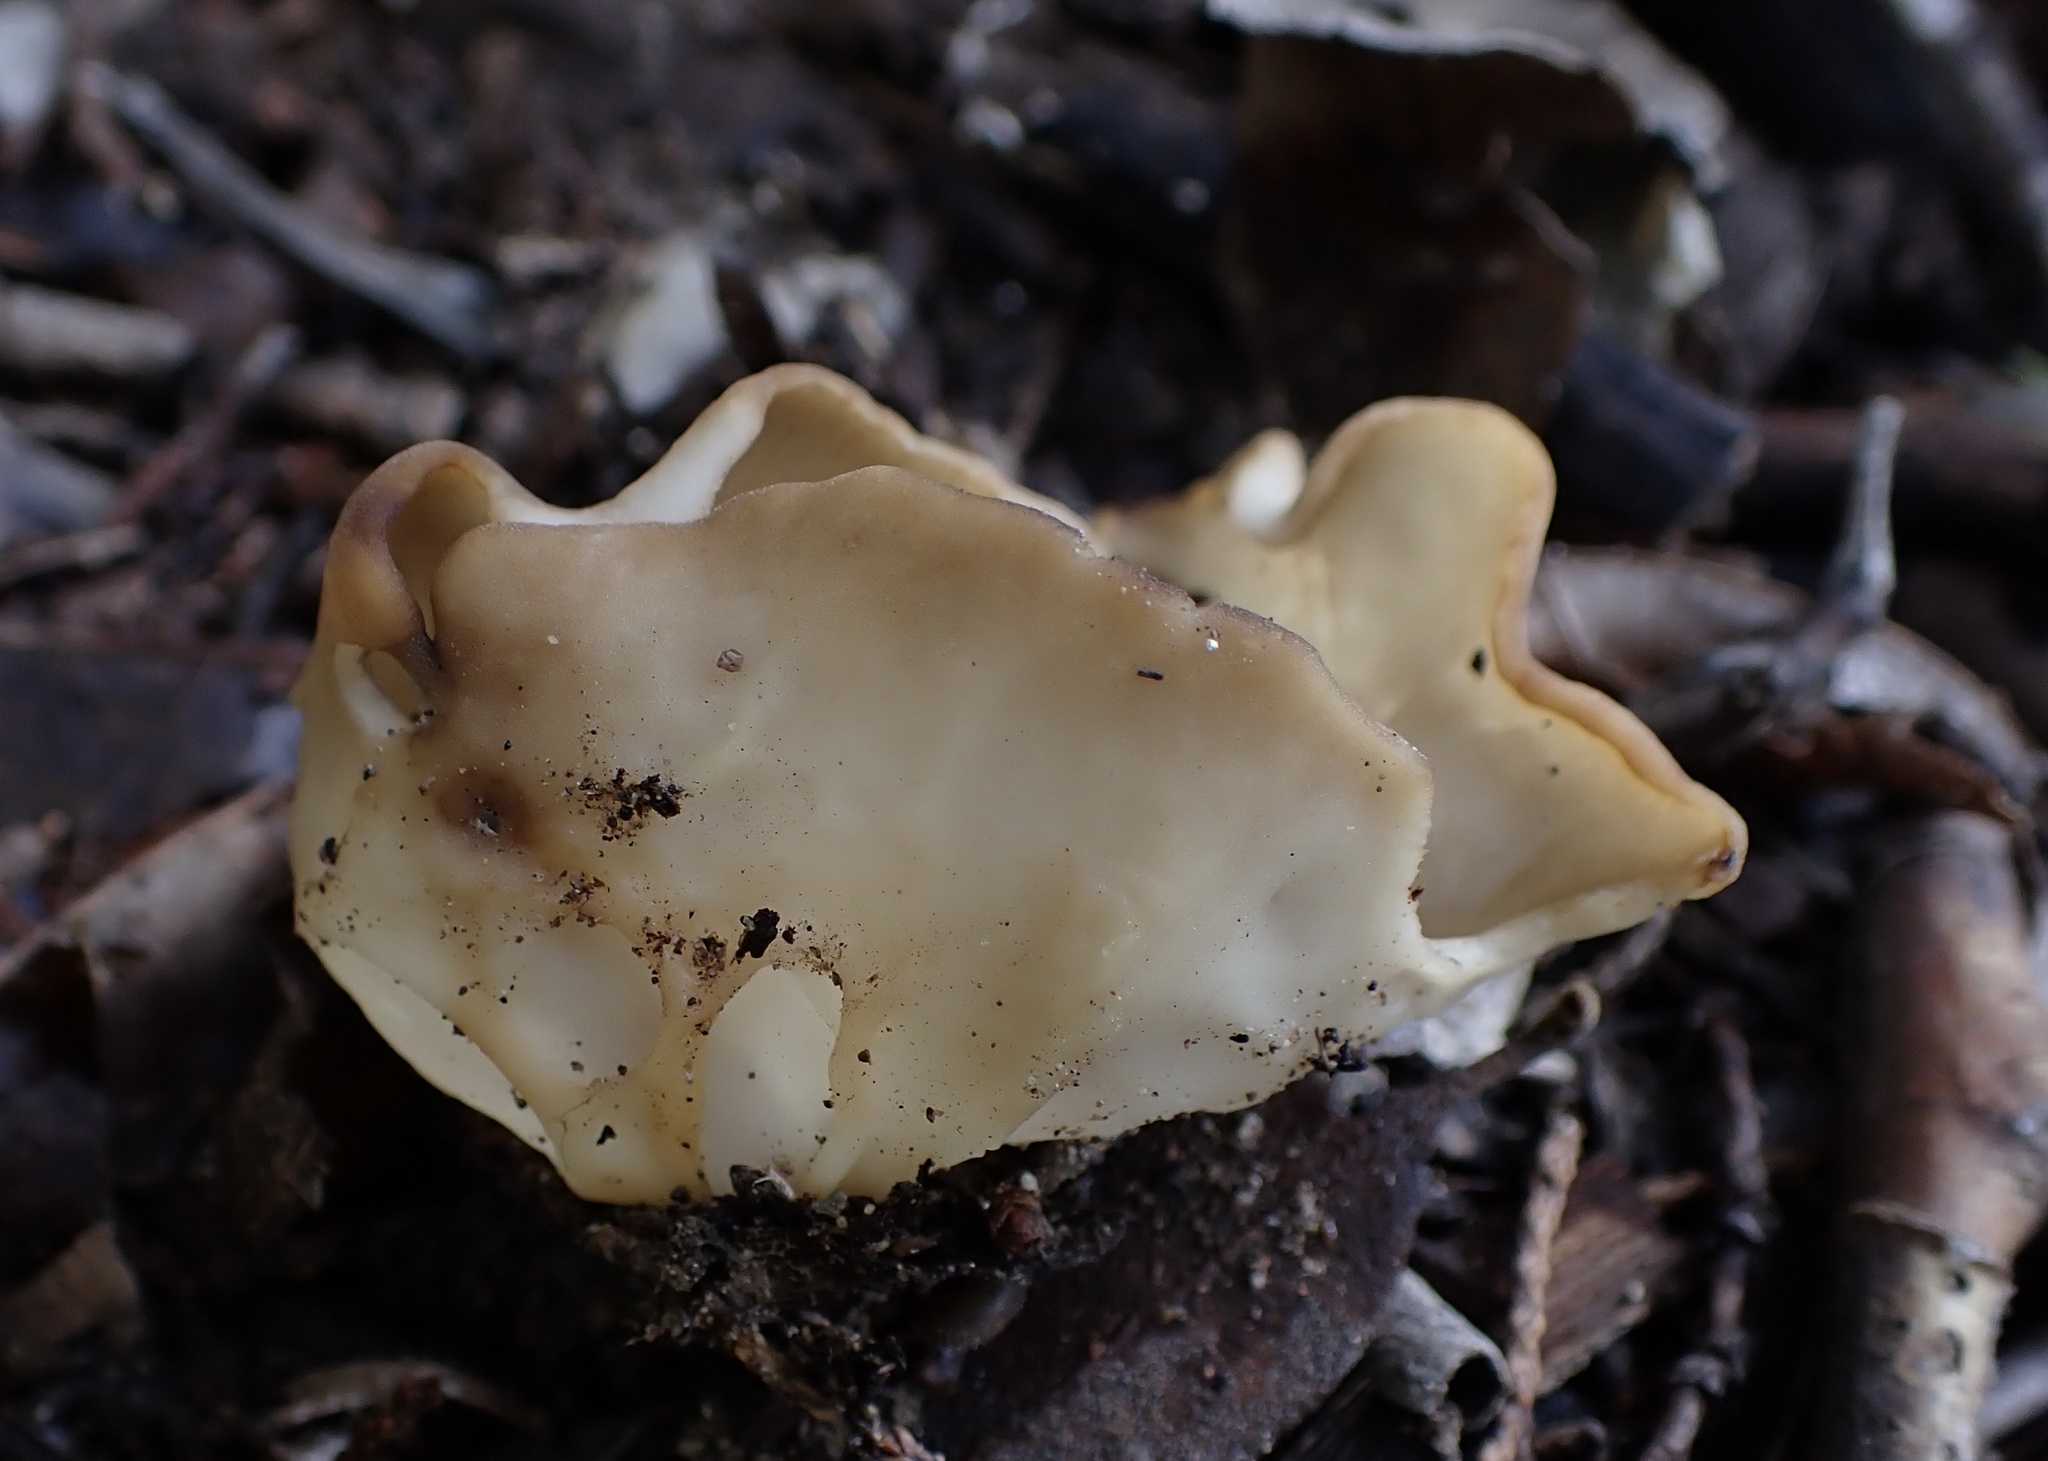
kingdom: Fungi
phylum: Ascomycota
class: Pezizomycetes
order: Pezizales
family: Helvellaceae
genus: Helvella
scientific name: Helvella acetabulum
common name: Vinegar cup
